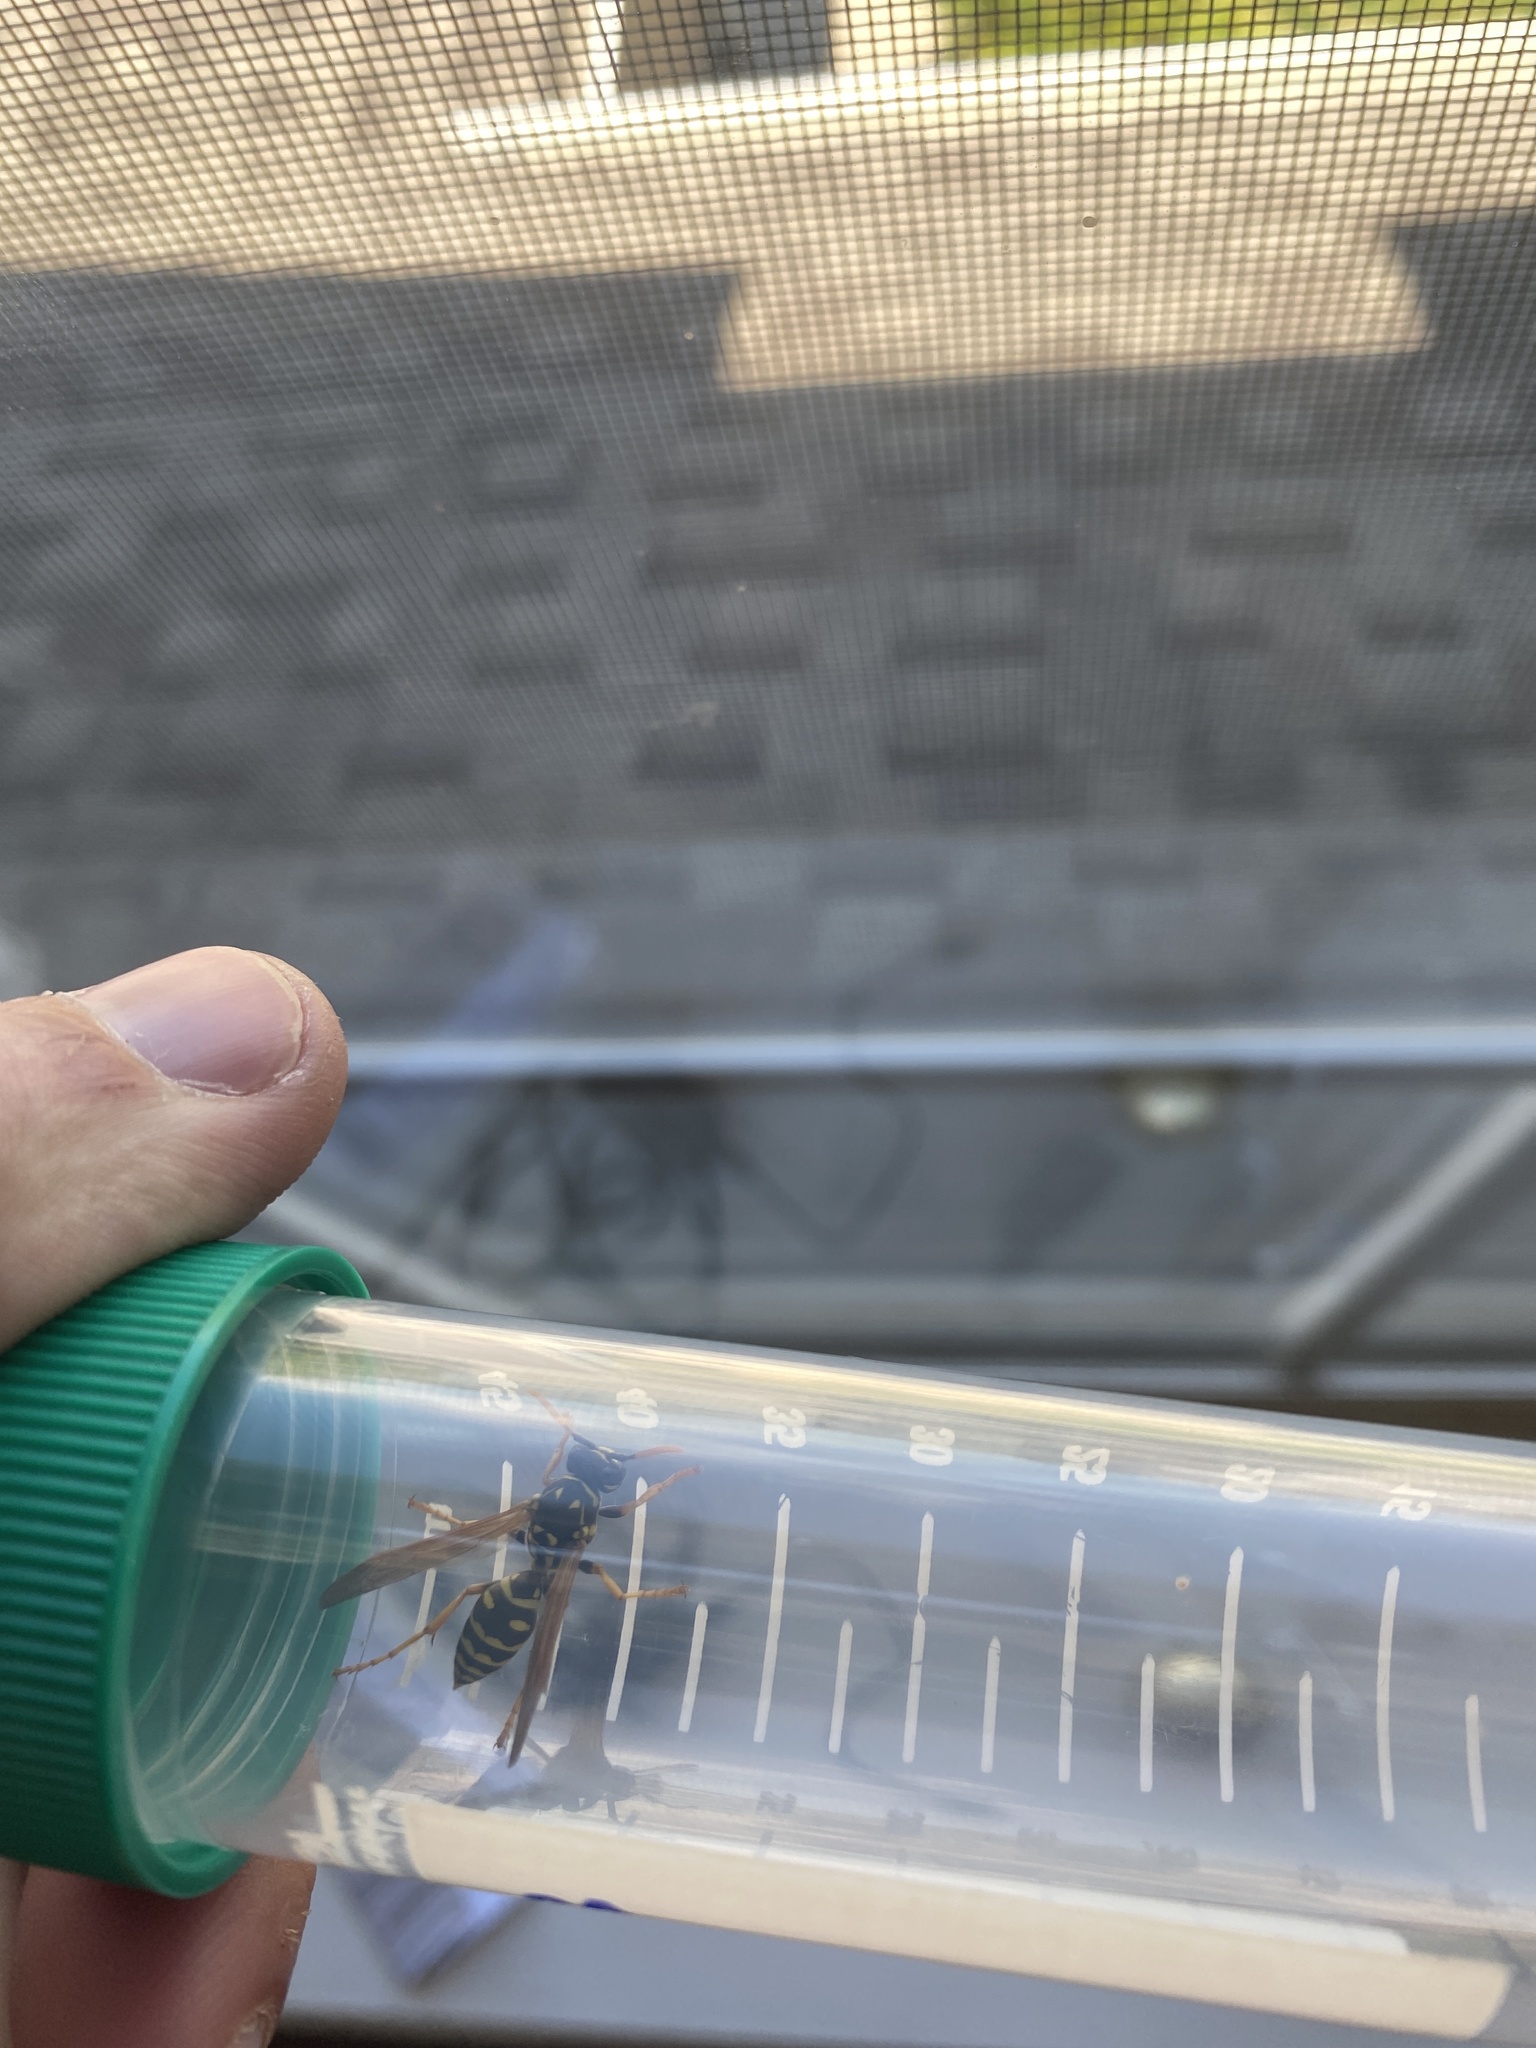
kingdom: Animalia
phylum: Arthropoda
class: Insecta
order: Hymenoptera
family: Eumenidae
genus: Polistes
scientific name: Polistes dominula
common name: Paper wasp
